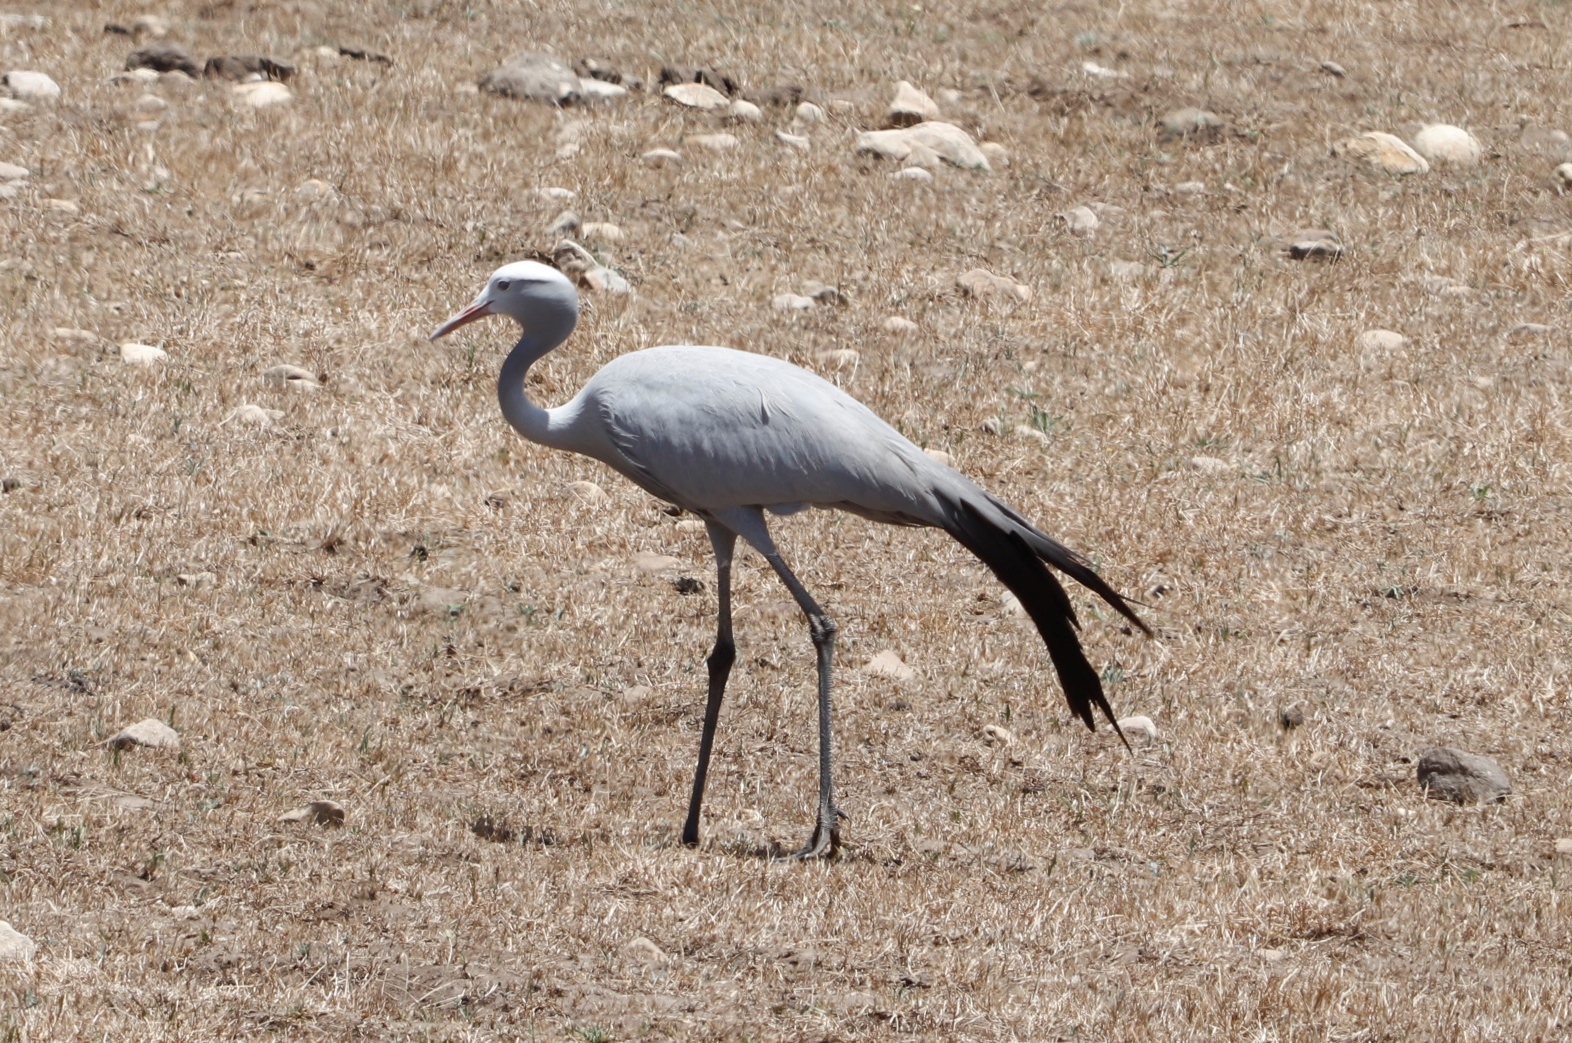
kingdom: Animalia
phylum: Chordata
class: Aves
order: Gruiformes
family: Gruidae
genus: Anthropoides
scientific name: Anthropoides paradiseus
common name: Blue crane
